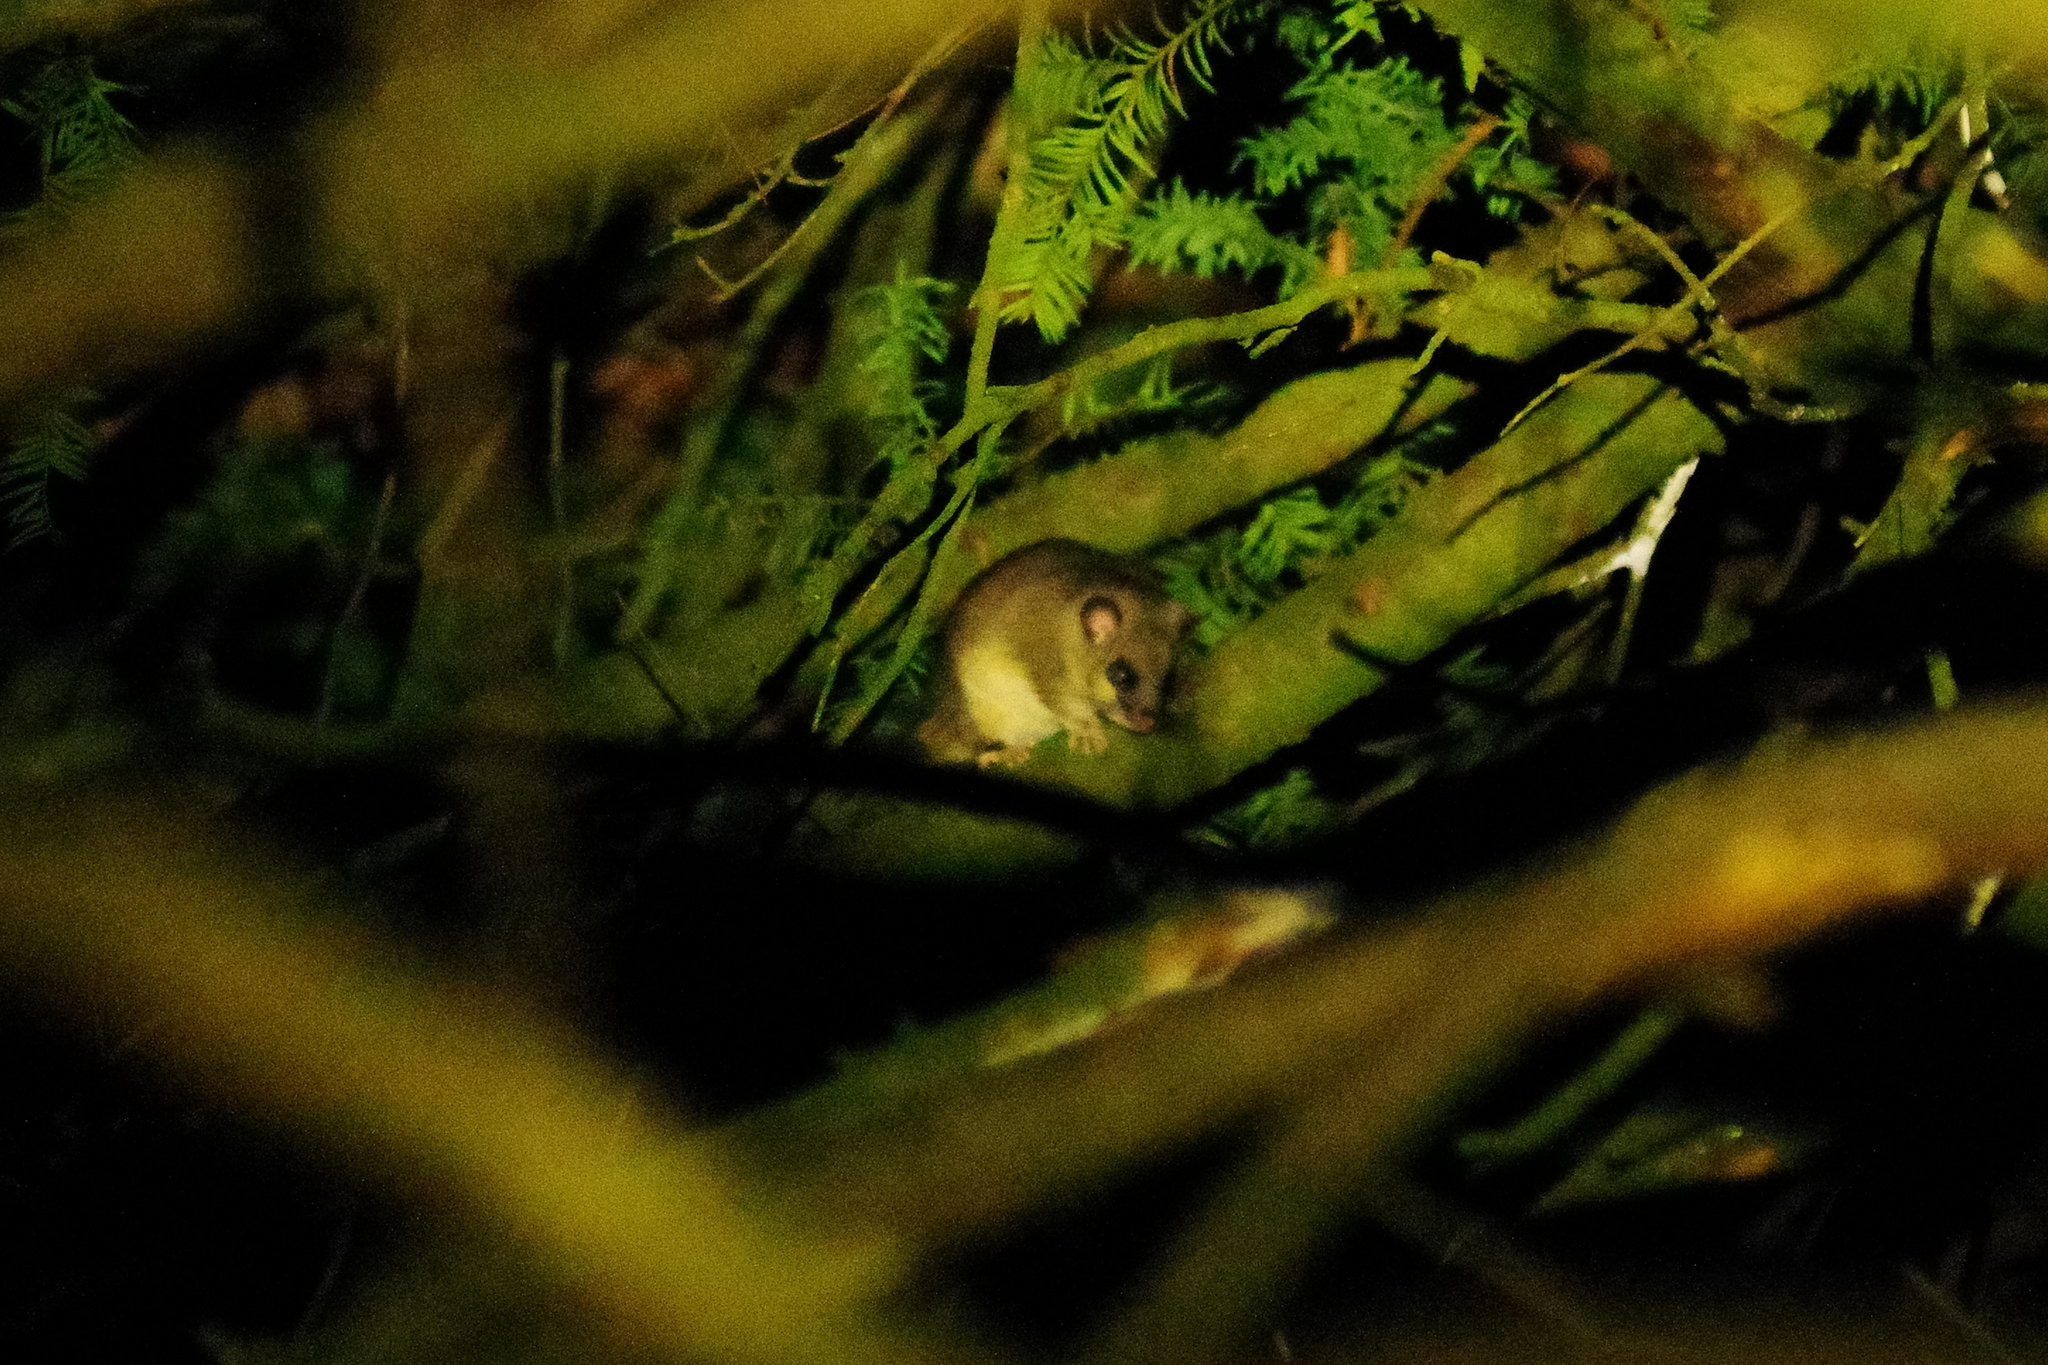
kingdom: Animalia
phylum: Chordata
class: Mammalia
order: Rodentia
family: Gliridae
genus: Glis
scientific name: Glis glis
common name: Fat dormouse
